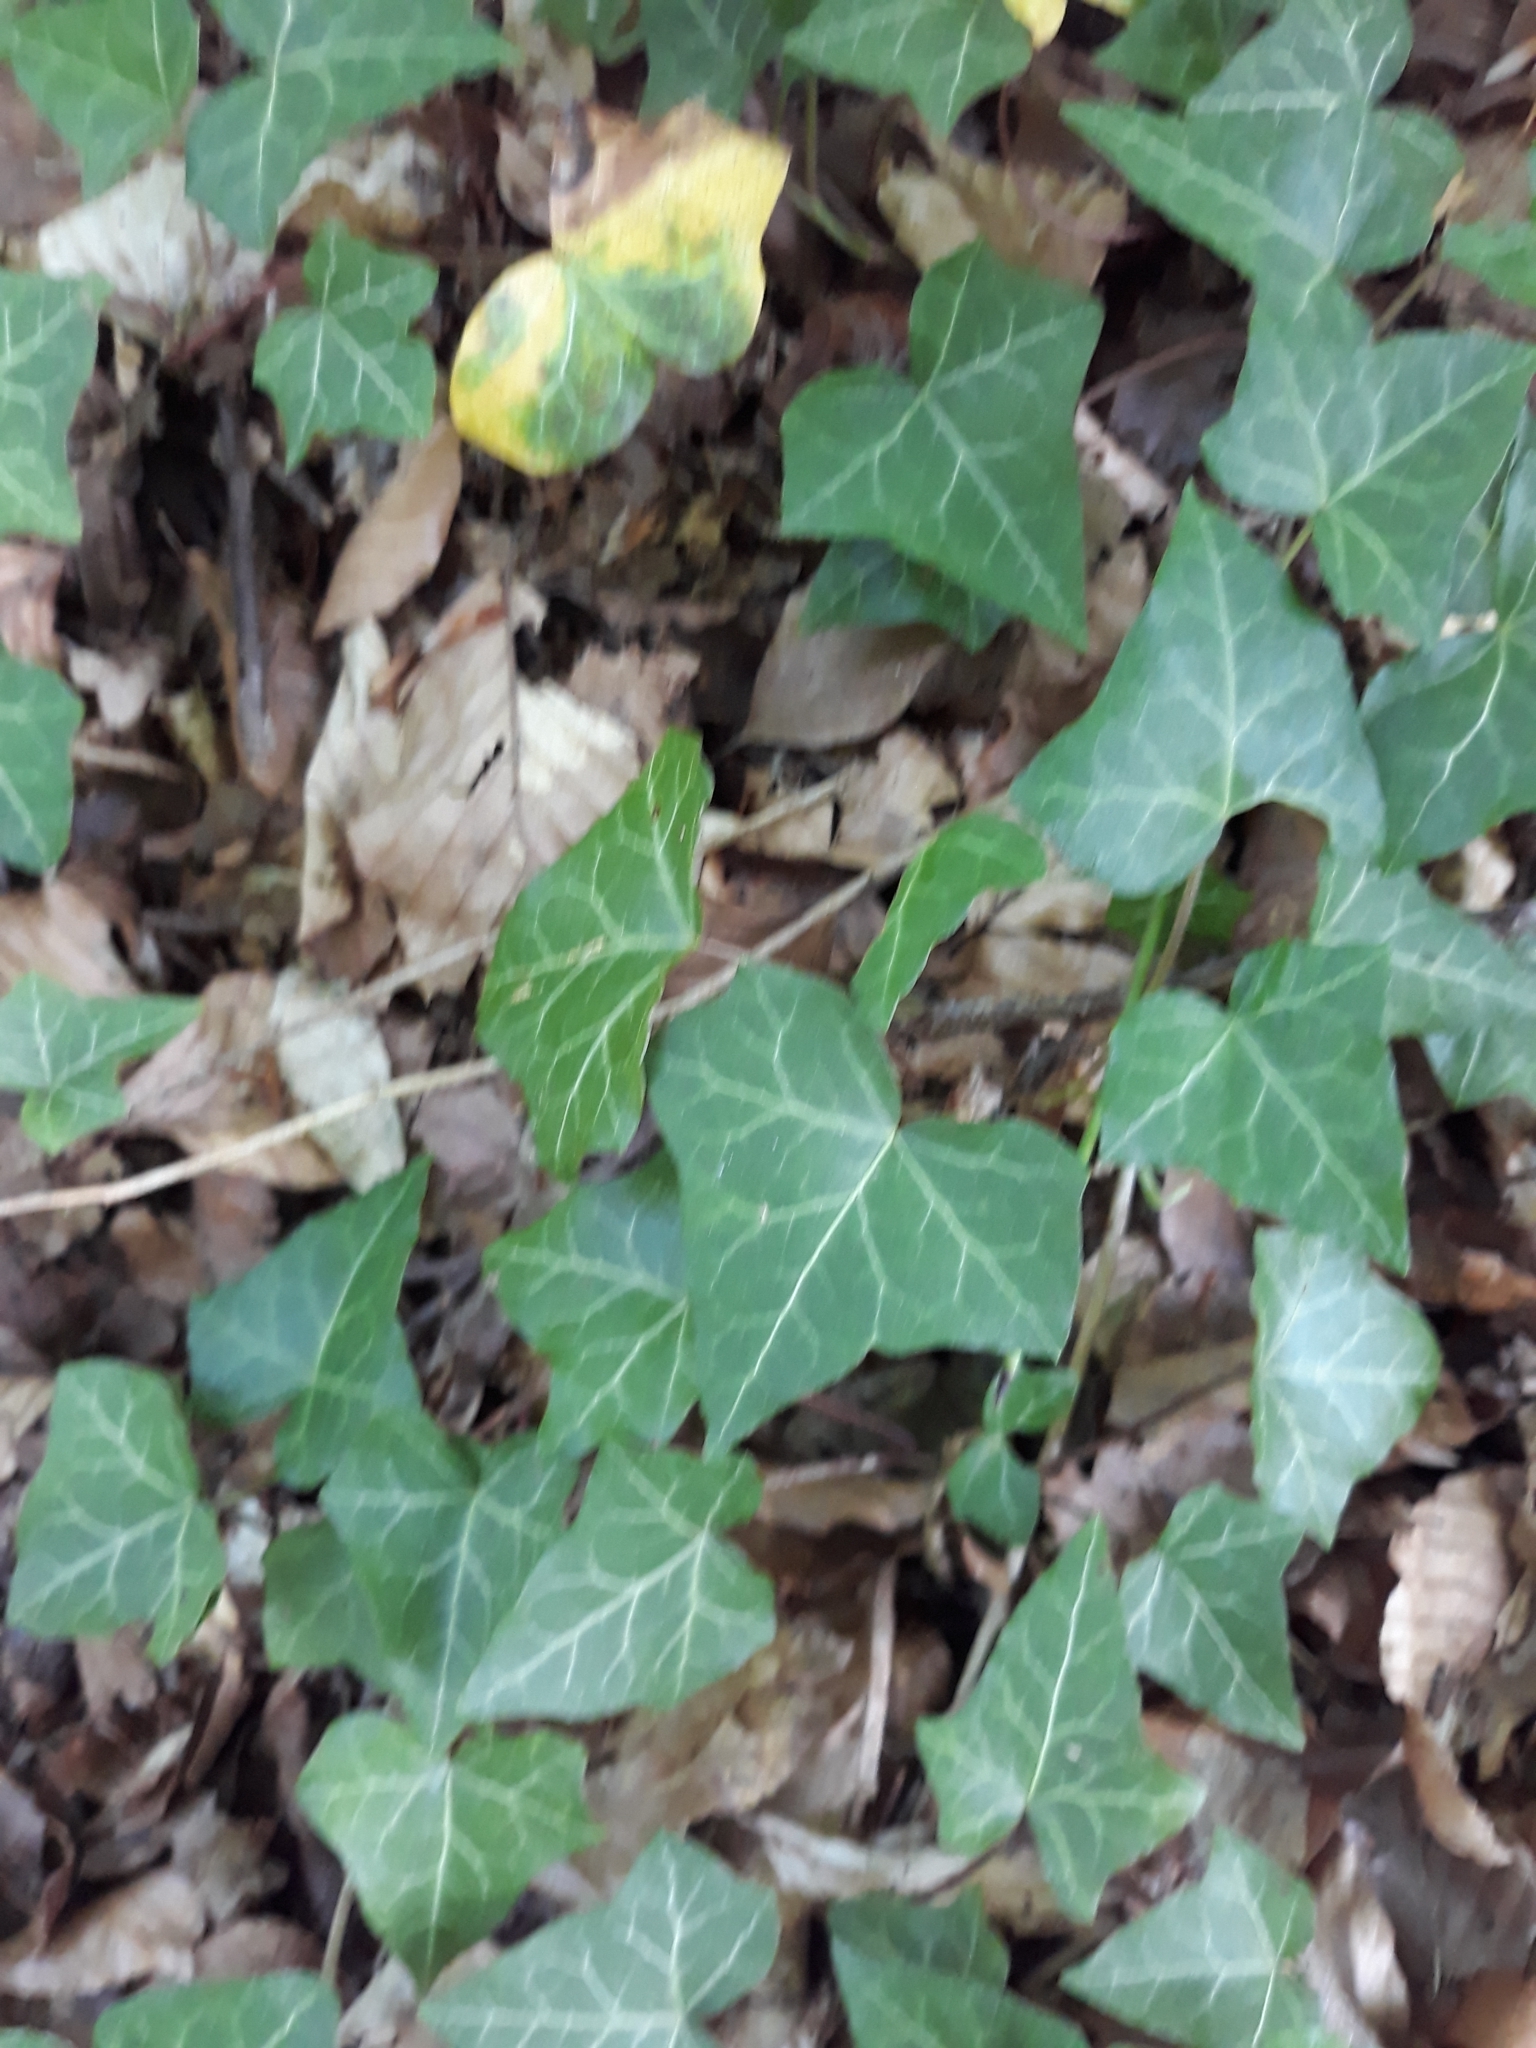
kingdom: Plantae
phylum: Tracheophyta
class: Magnoliopsida
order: Apiales
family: Araliaceae
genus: Hedera
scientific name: Hedera helix
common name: Ivy
